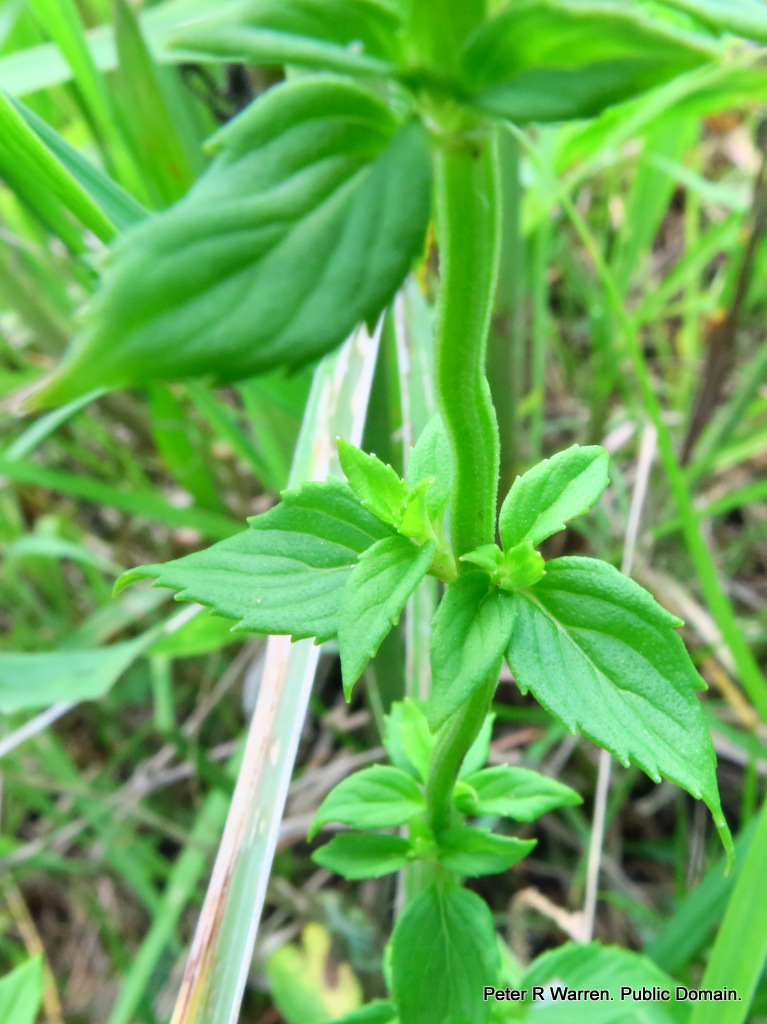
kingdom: Plantae
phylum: Tracheophyta
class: Magnoliopsida
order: Lamiales
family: Lamiaceae
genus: Mentha
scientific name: Mentha aquatica
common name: Water mint
